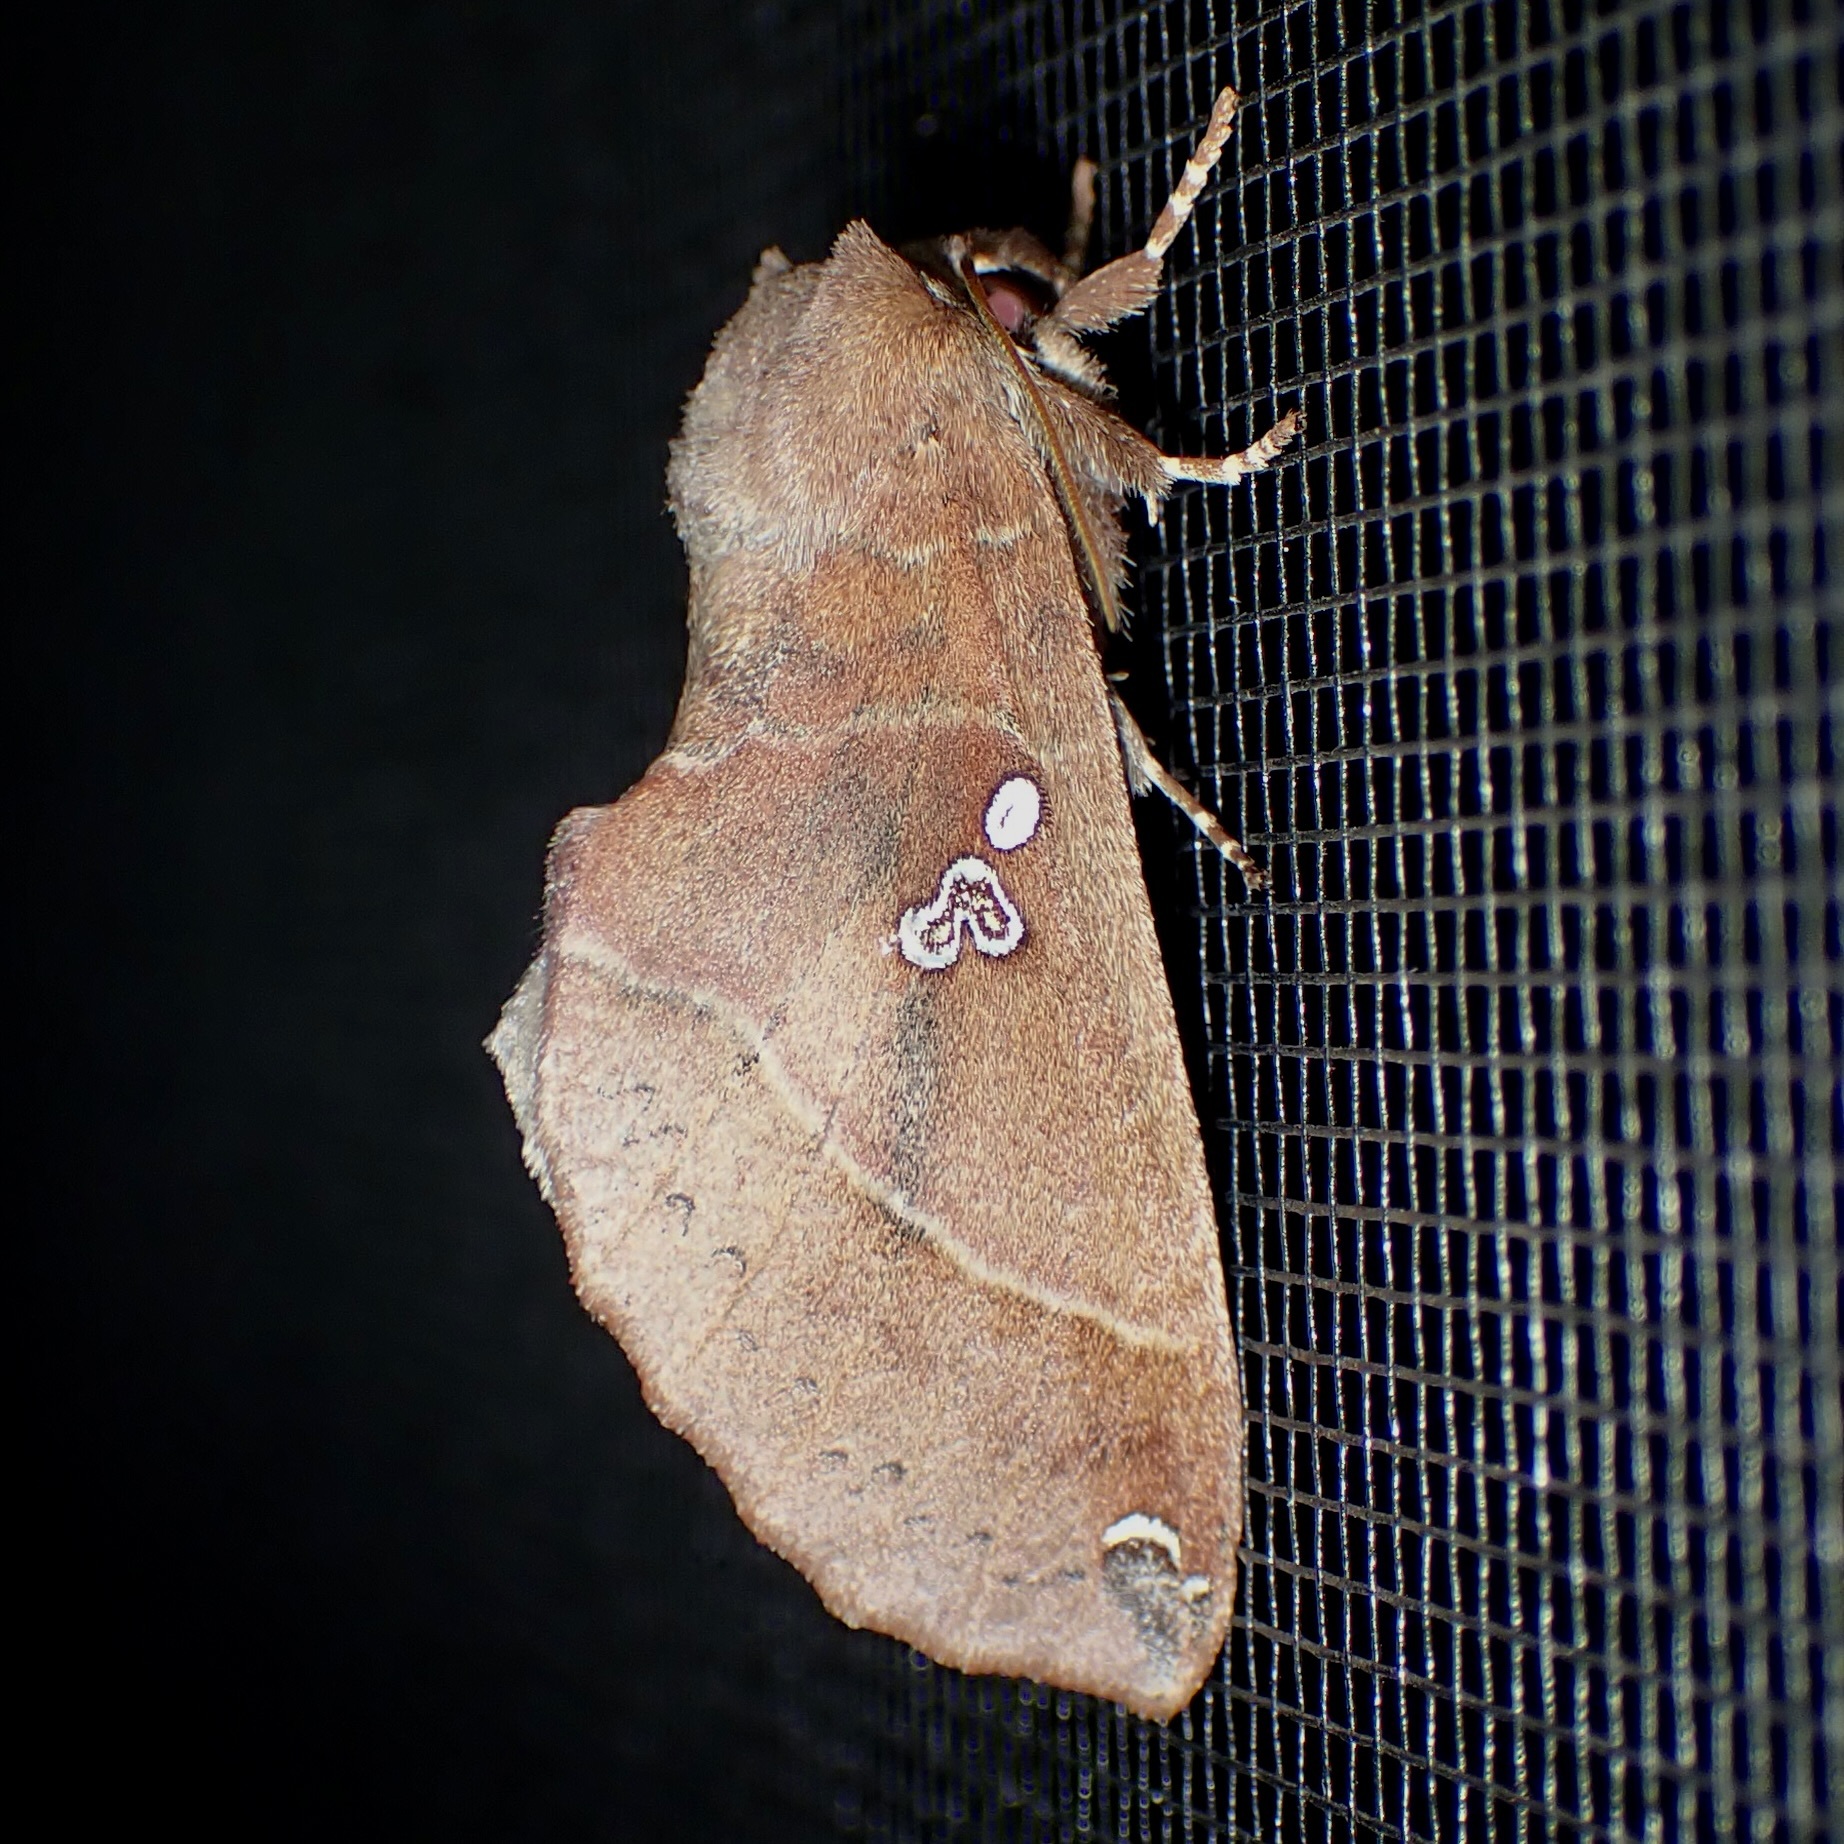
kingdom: Animalia
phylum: Arthropoda
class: Insecta
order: Lepidoptera
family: Notodontidae
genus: Pseudhapigia
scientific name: Pseudhapigia brunnea
